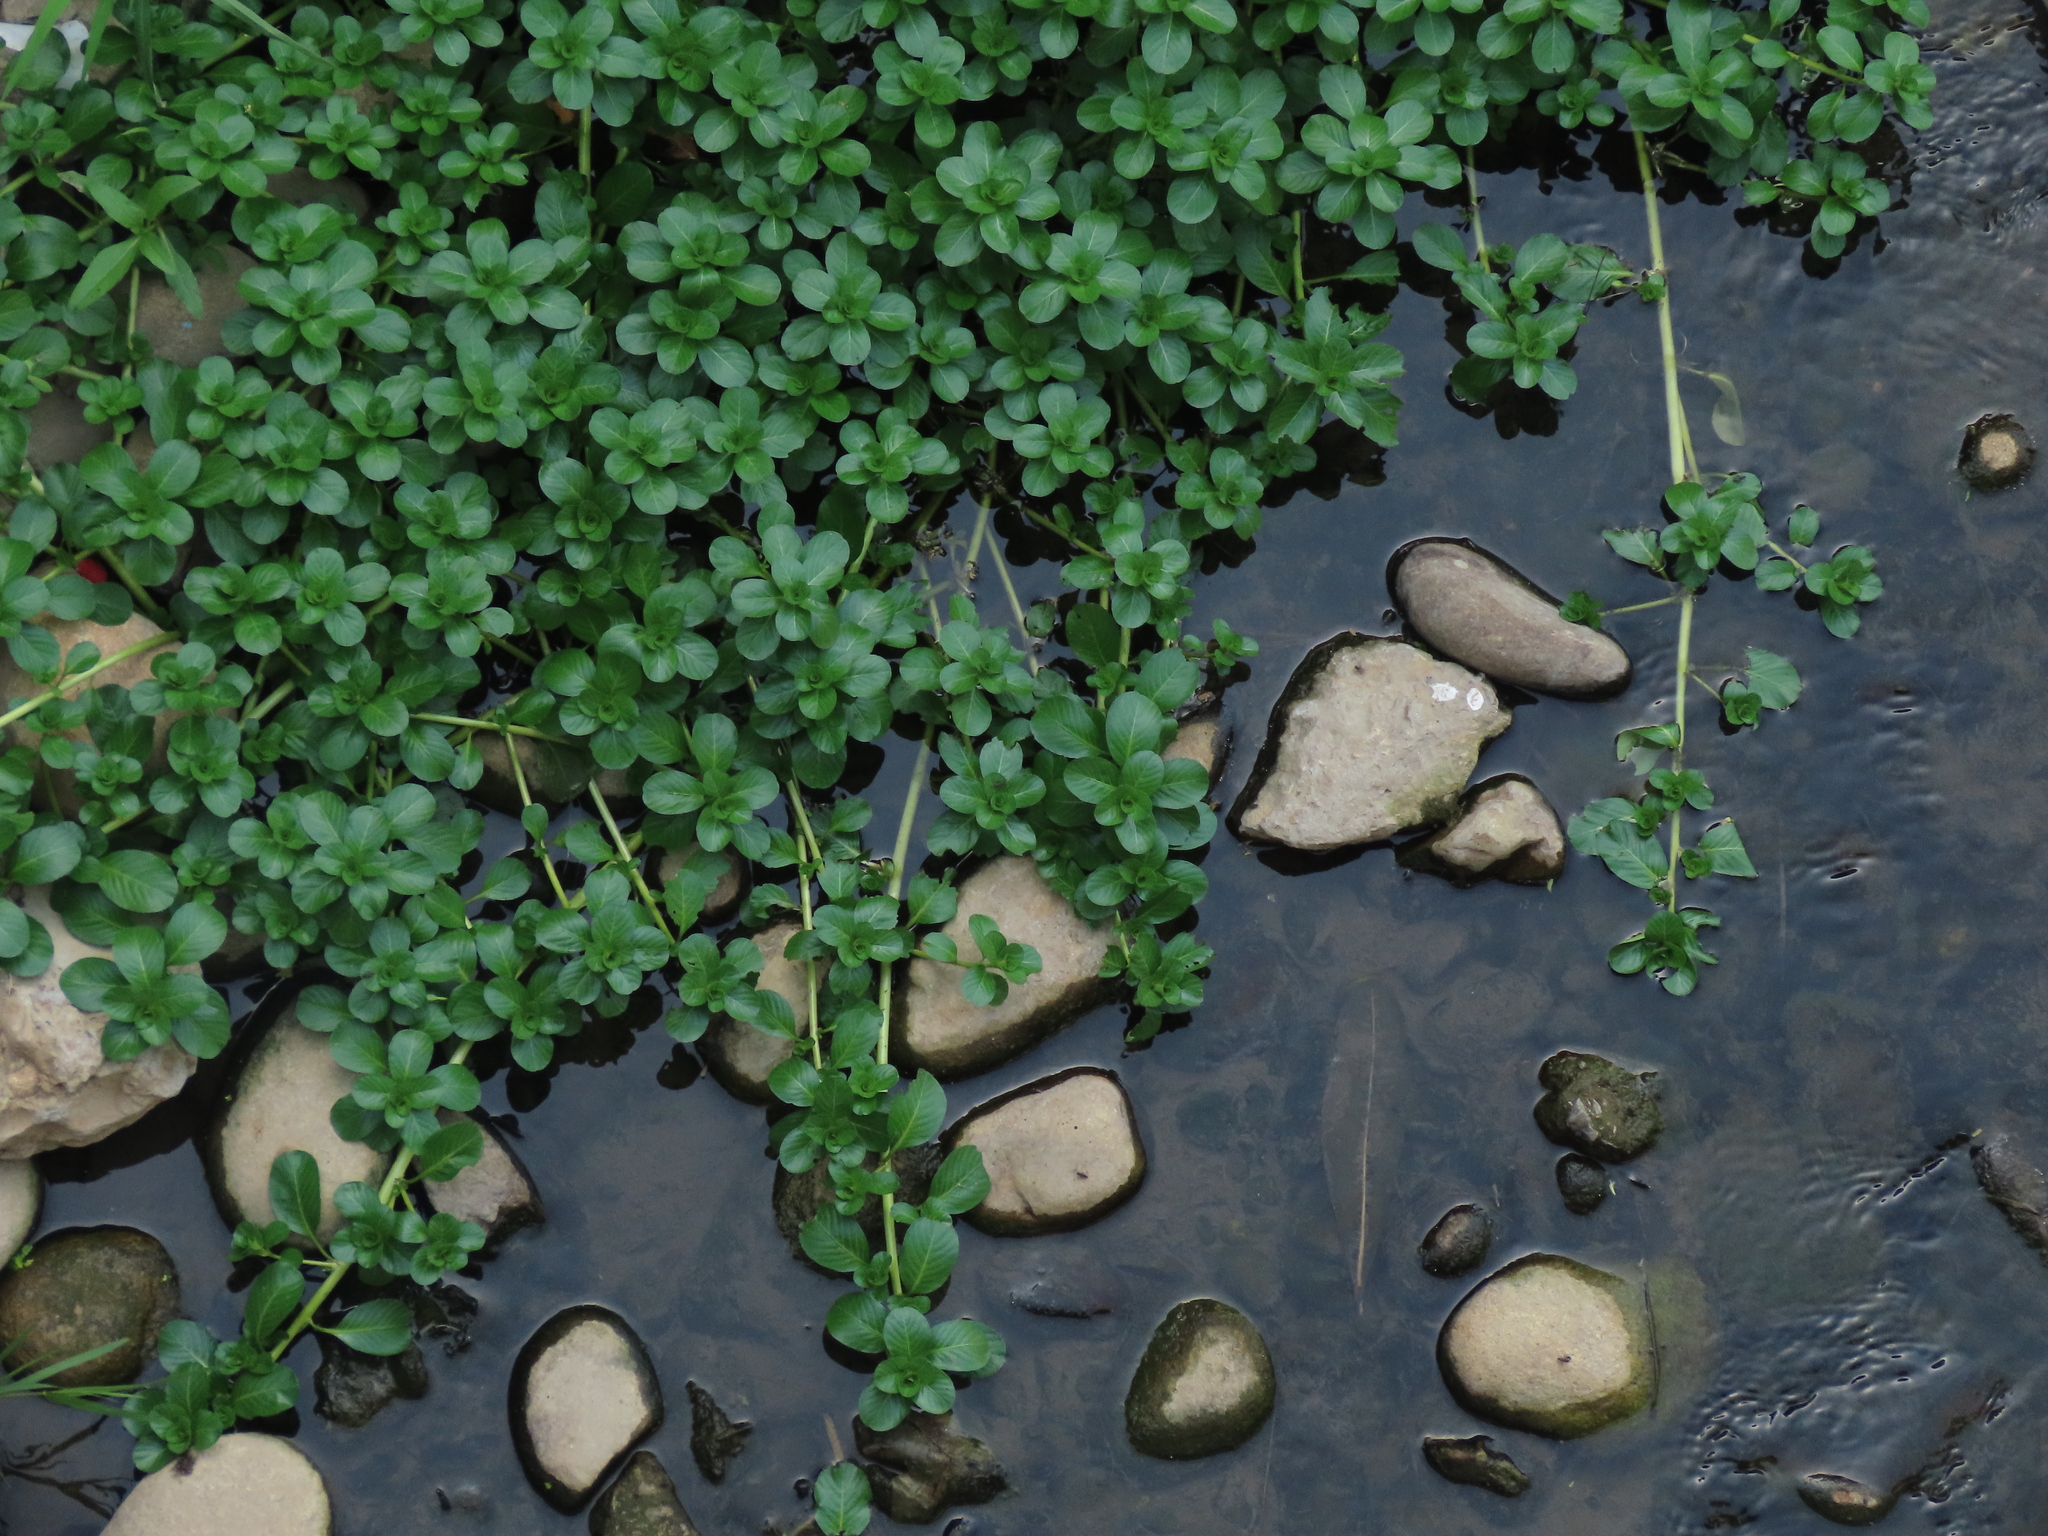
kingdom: Plantae
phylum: Tracheophyta
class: Magnoliopsida
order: Myrtales
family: Onagraceae
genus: Ludwigia
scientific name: Ludwigia taiwanensis
